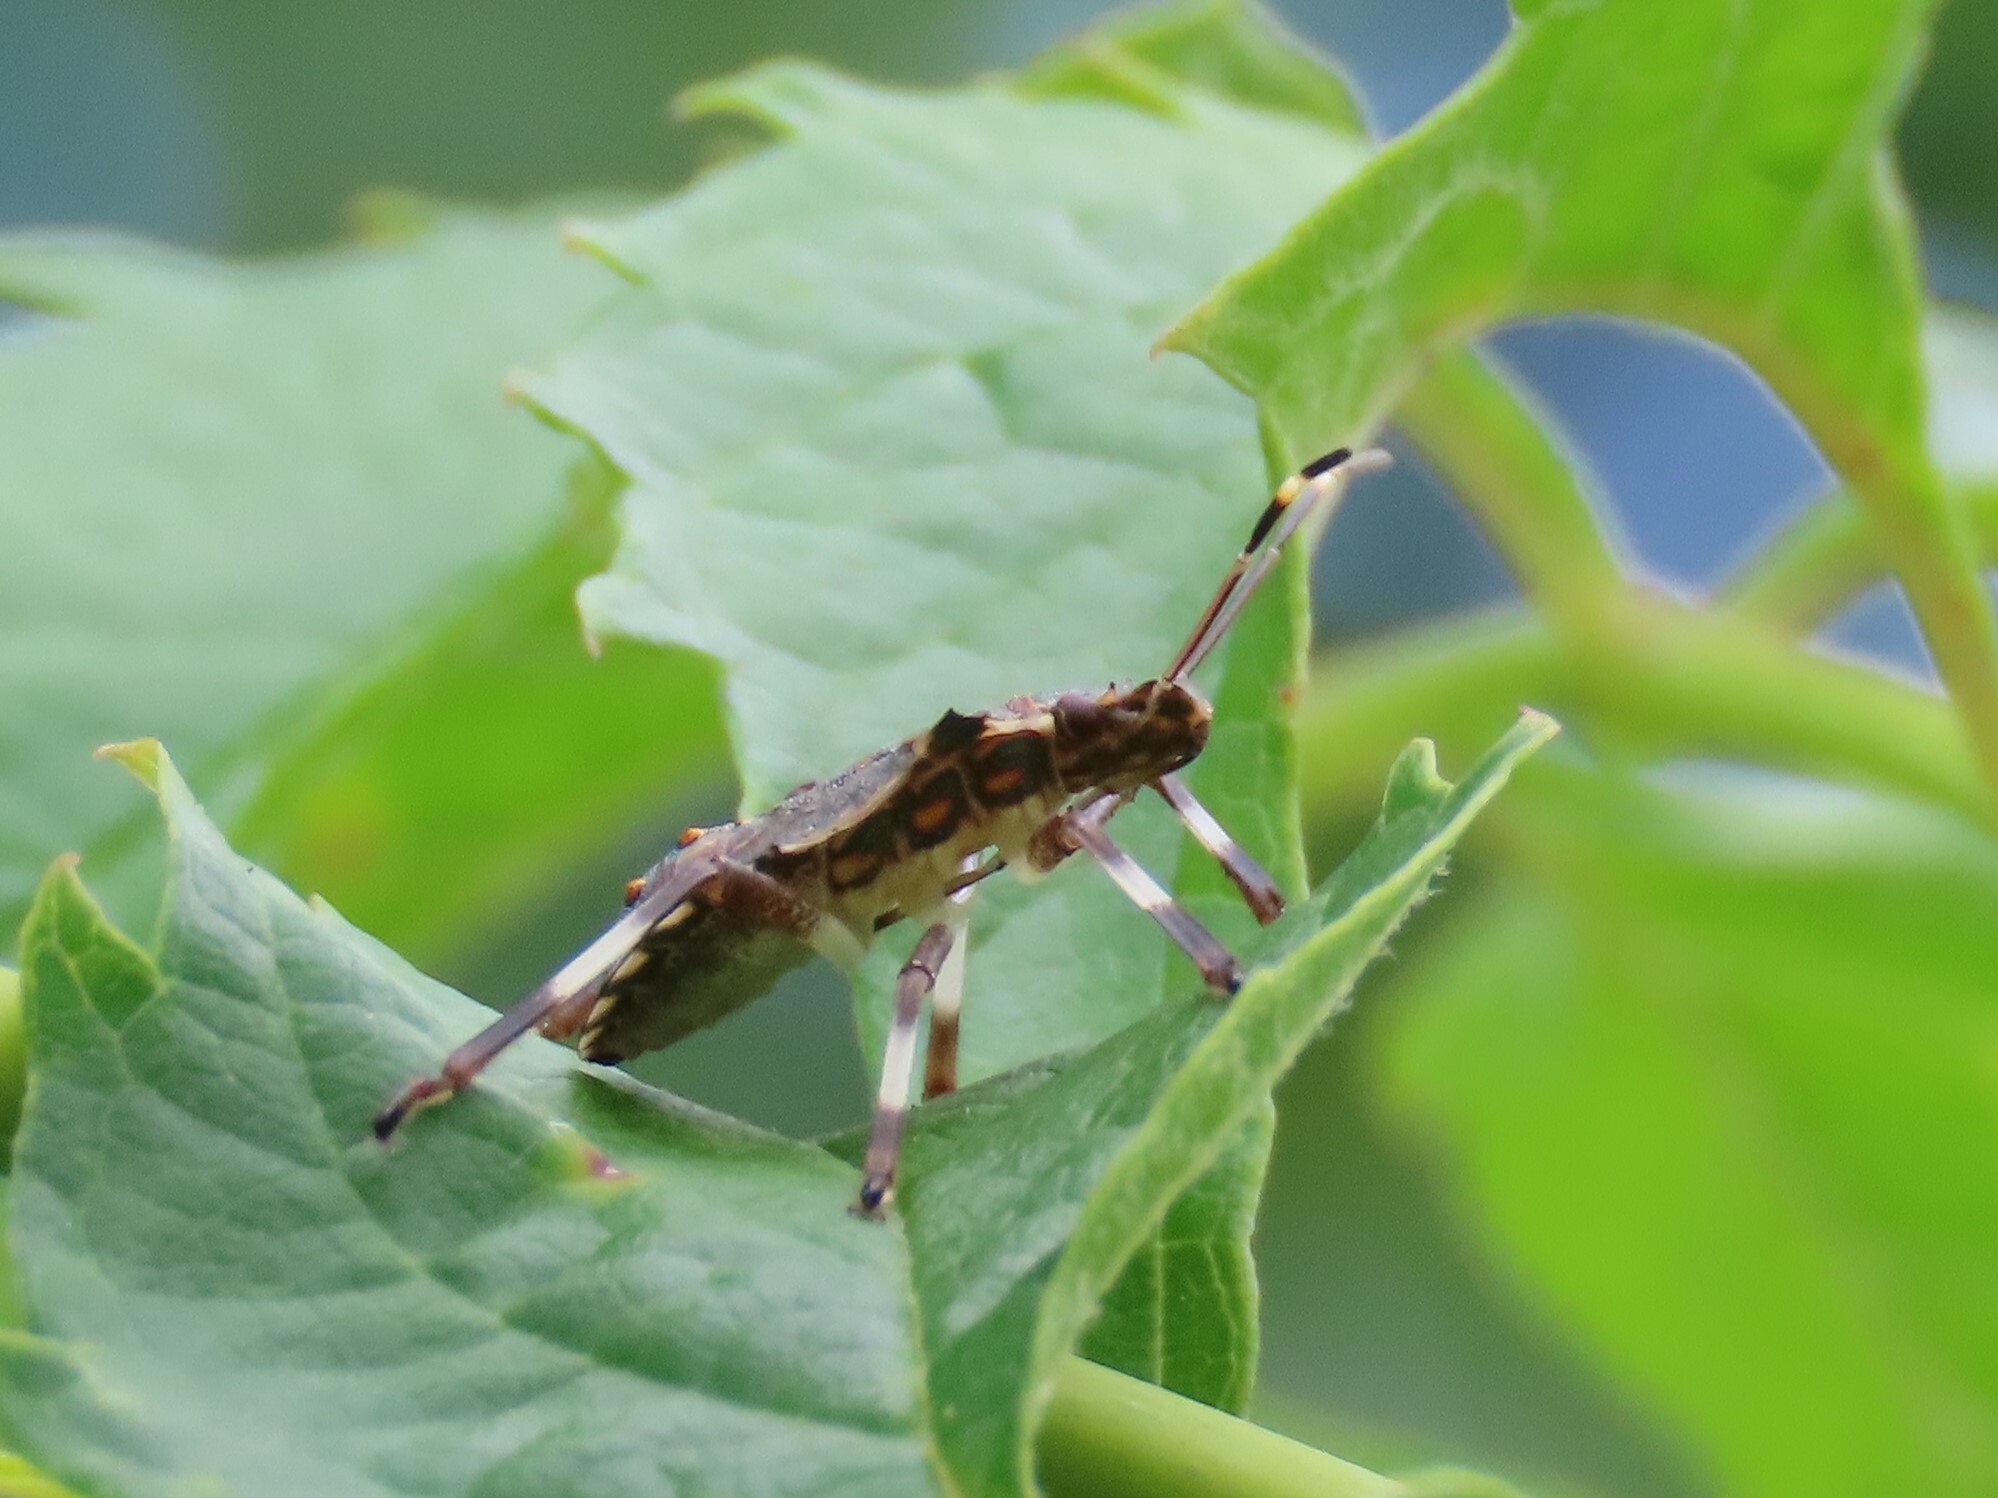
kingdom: Animalia
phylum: Arthropoda
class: Insecta
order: Hemiptera
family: Pentatomidae
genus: Halyomorpha
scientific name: Halyomorpha halys
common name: Brown marmorated stink bug
